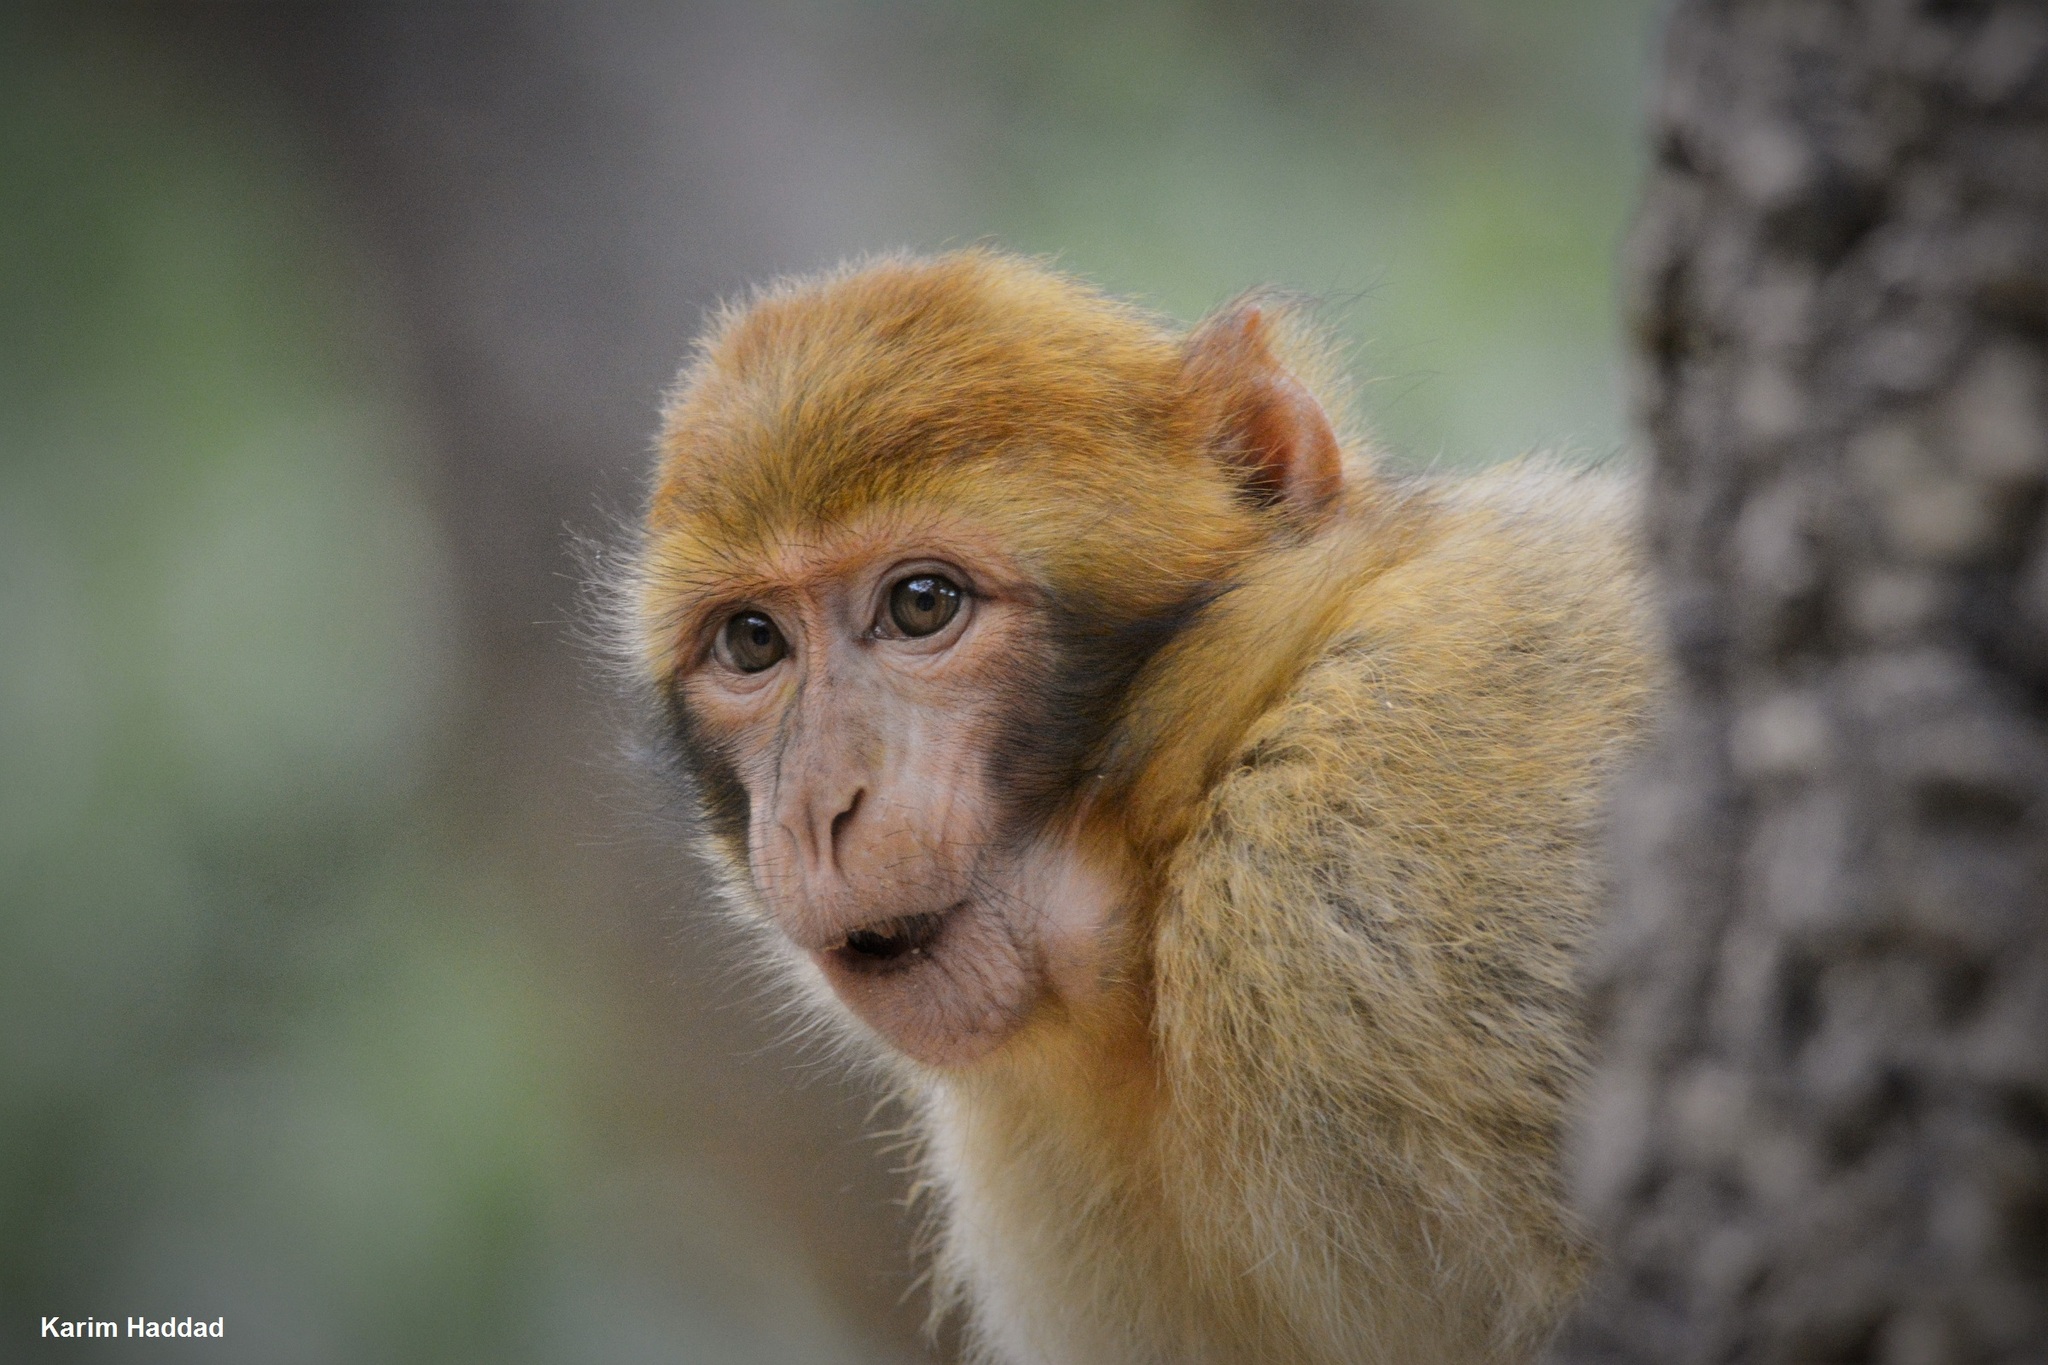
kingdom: Animalia
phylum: Chordata
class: Mammalia
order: Primates
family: Cercopithecidae
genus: Macaca
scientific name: Macaca sylvanus
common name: Barbary macaque
